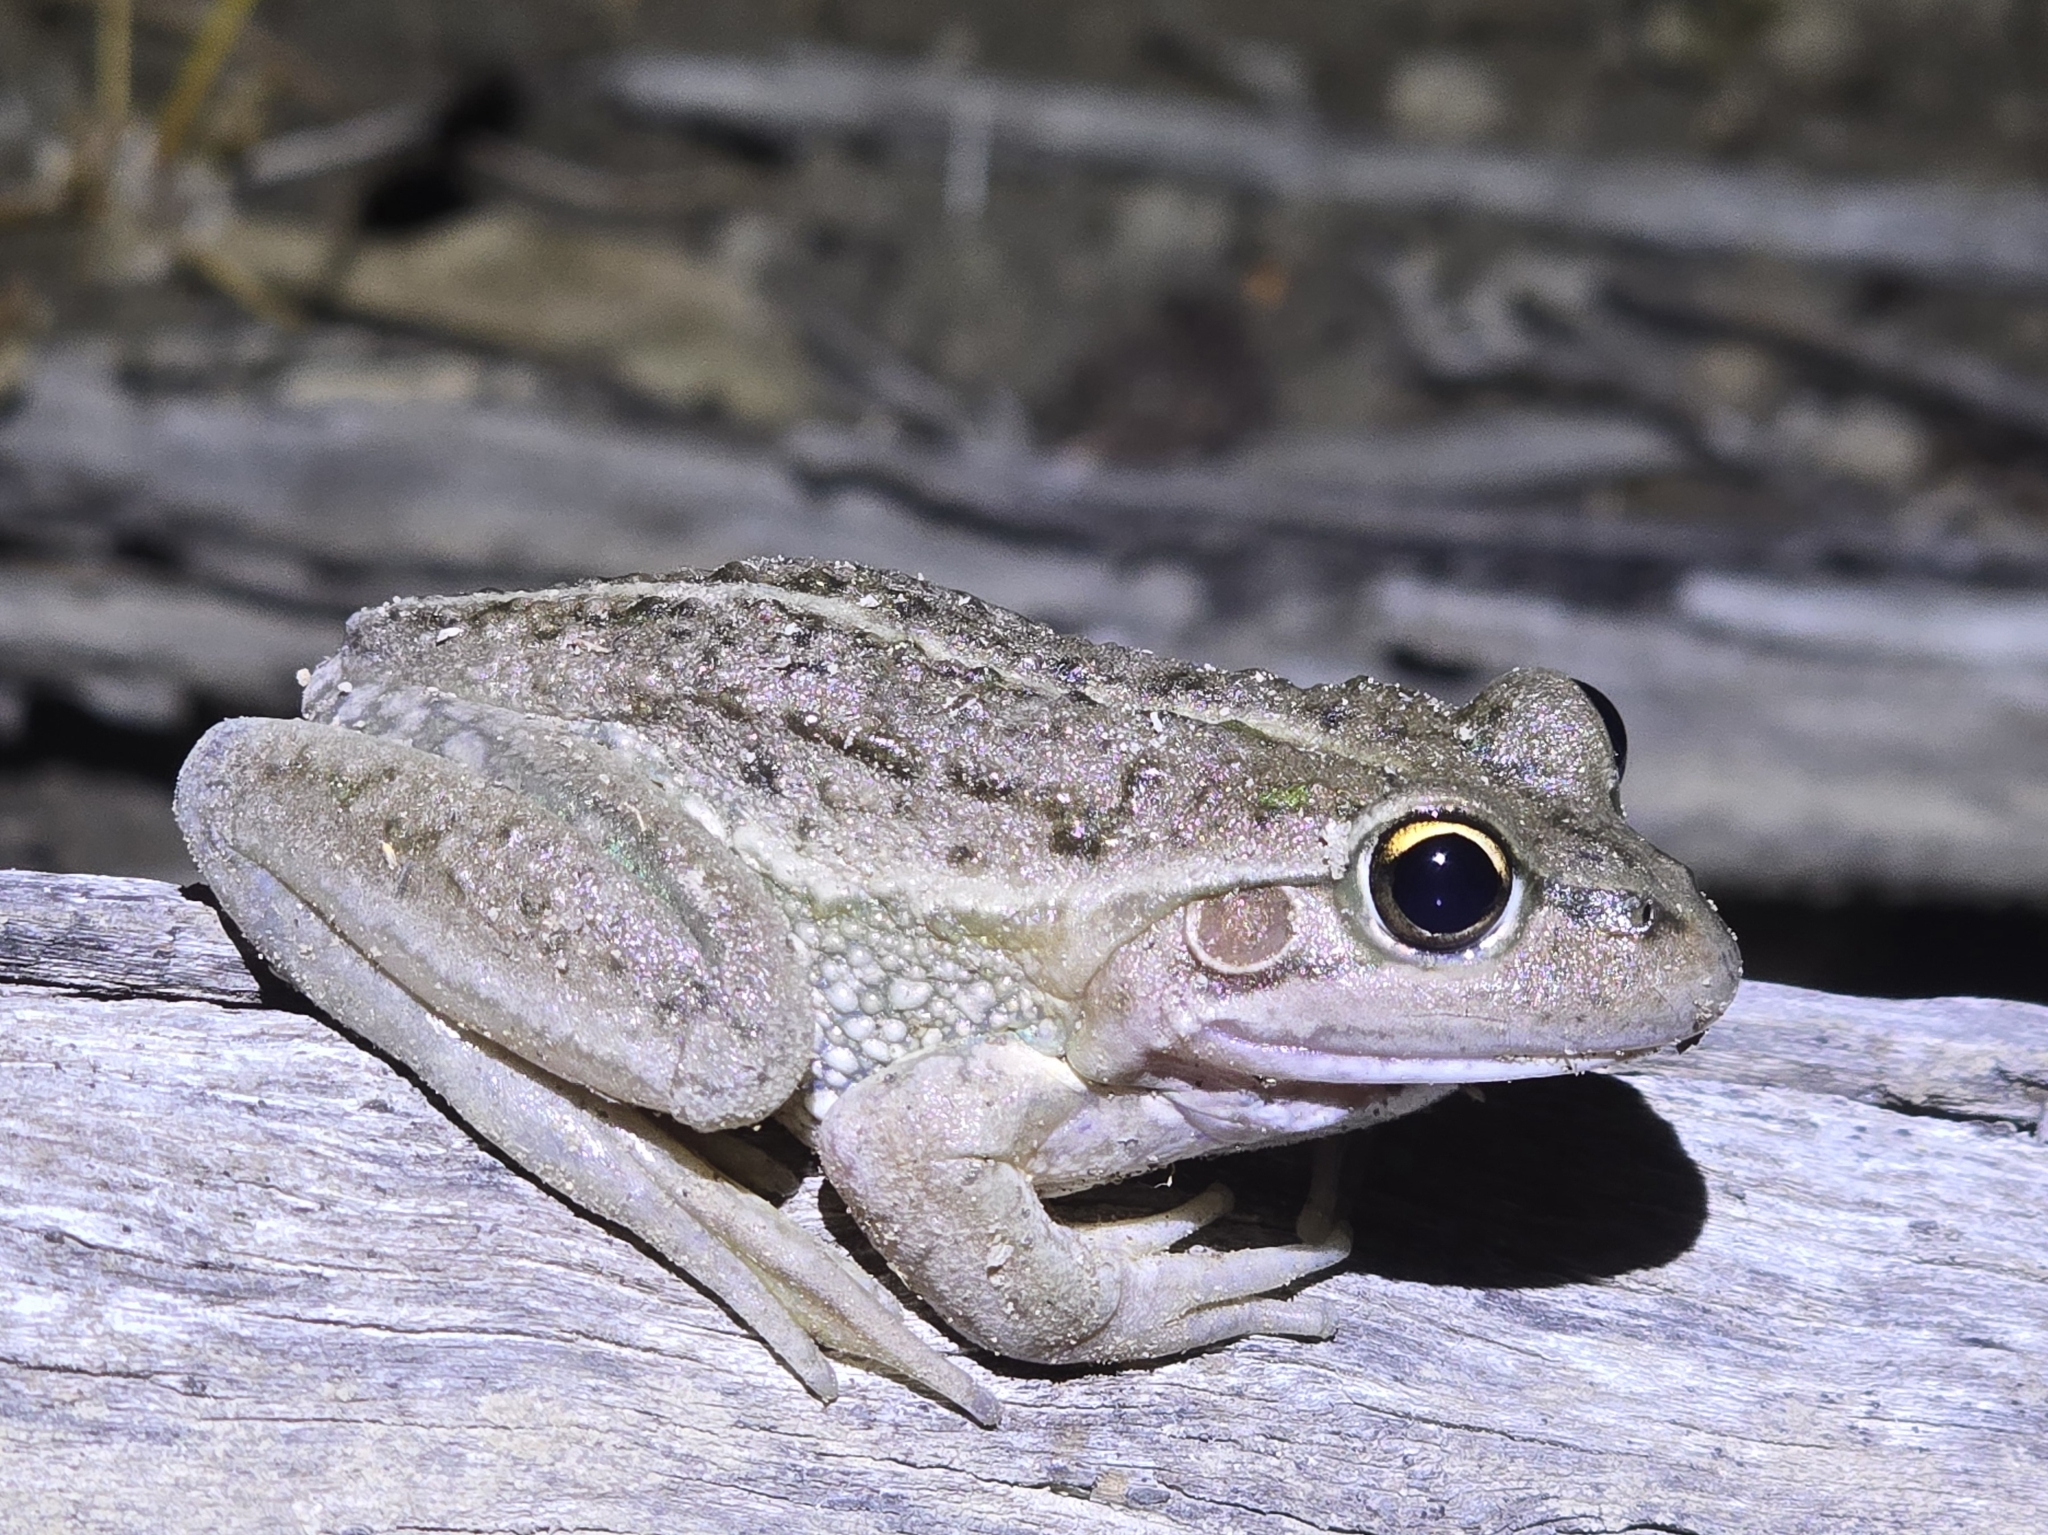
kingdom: Animalia
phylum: Chordata
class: Amphibia
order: Anura
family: Pelodryadidae
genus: Ranoidea
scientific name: Ranoidea raniformis
